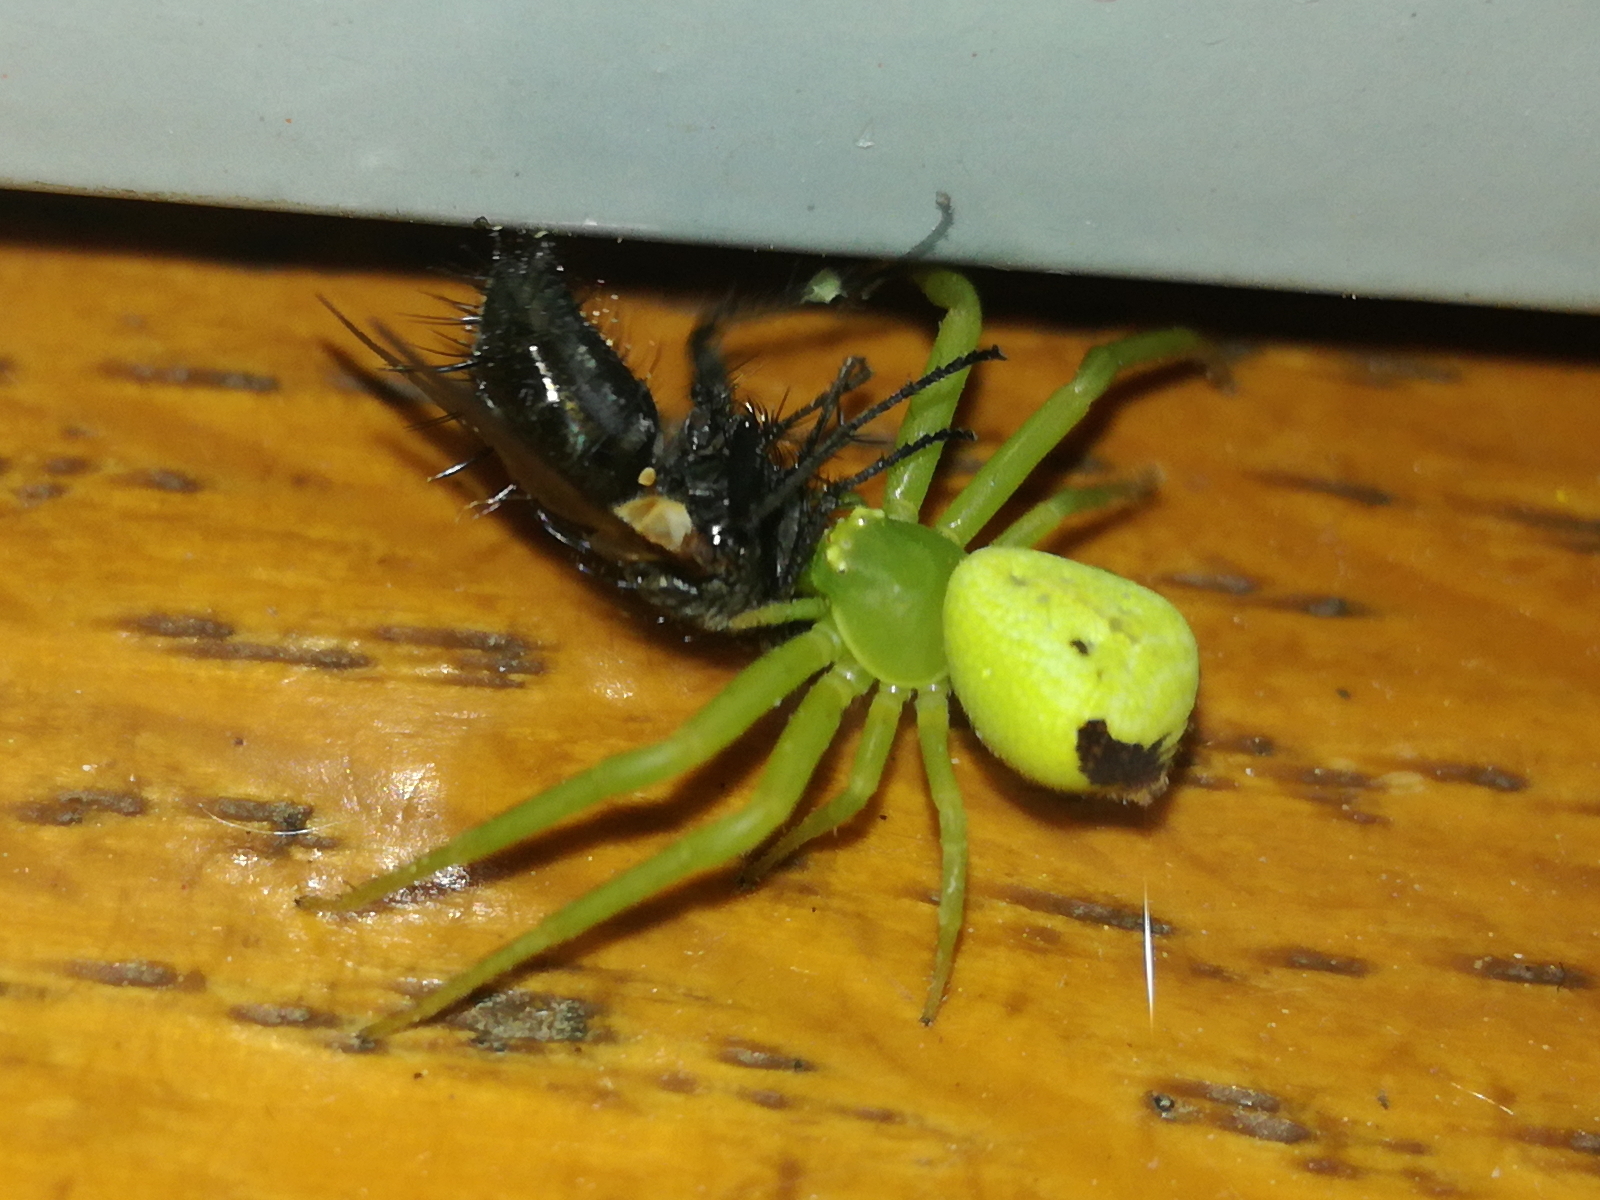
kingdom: Animalia
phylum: Arthropoda
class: Arachnida
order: Araneae
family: Thomisidae
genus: Ebrechtella
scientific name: Ebrechtella tricuspidata
